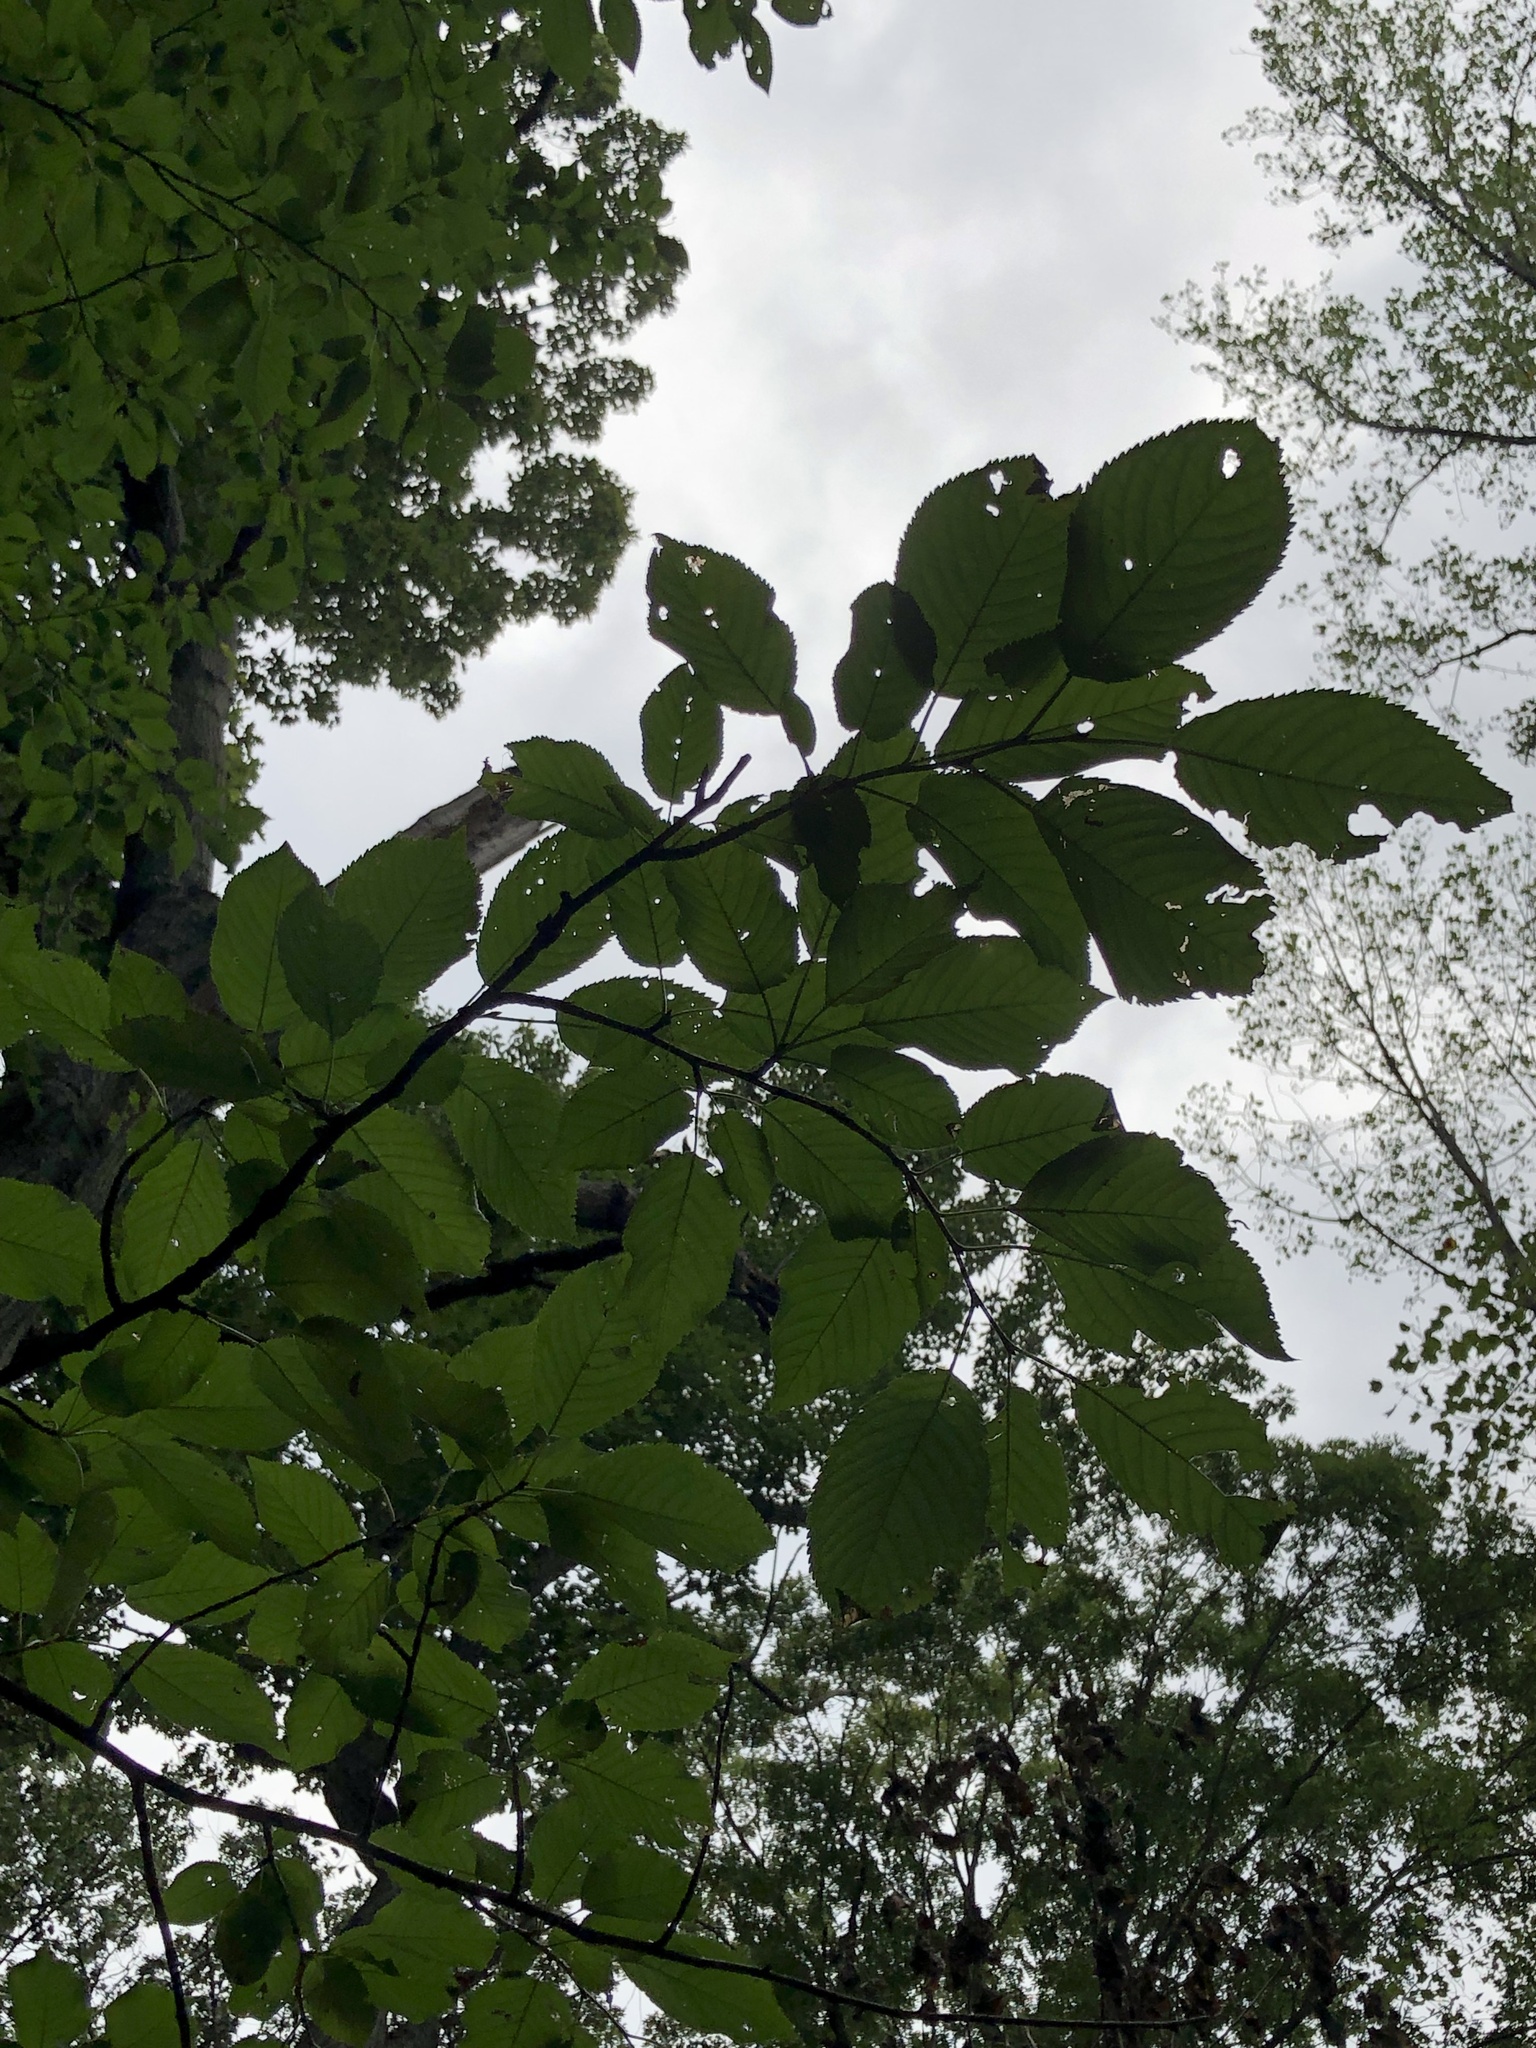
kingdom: Plantae
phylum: Tracheophyta
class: Magnoliopsida
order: Rosales
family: Rosaceae
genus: Prunus
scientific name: Prunus avium
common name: Sweet cherry
